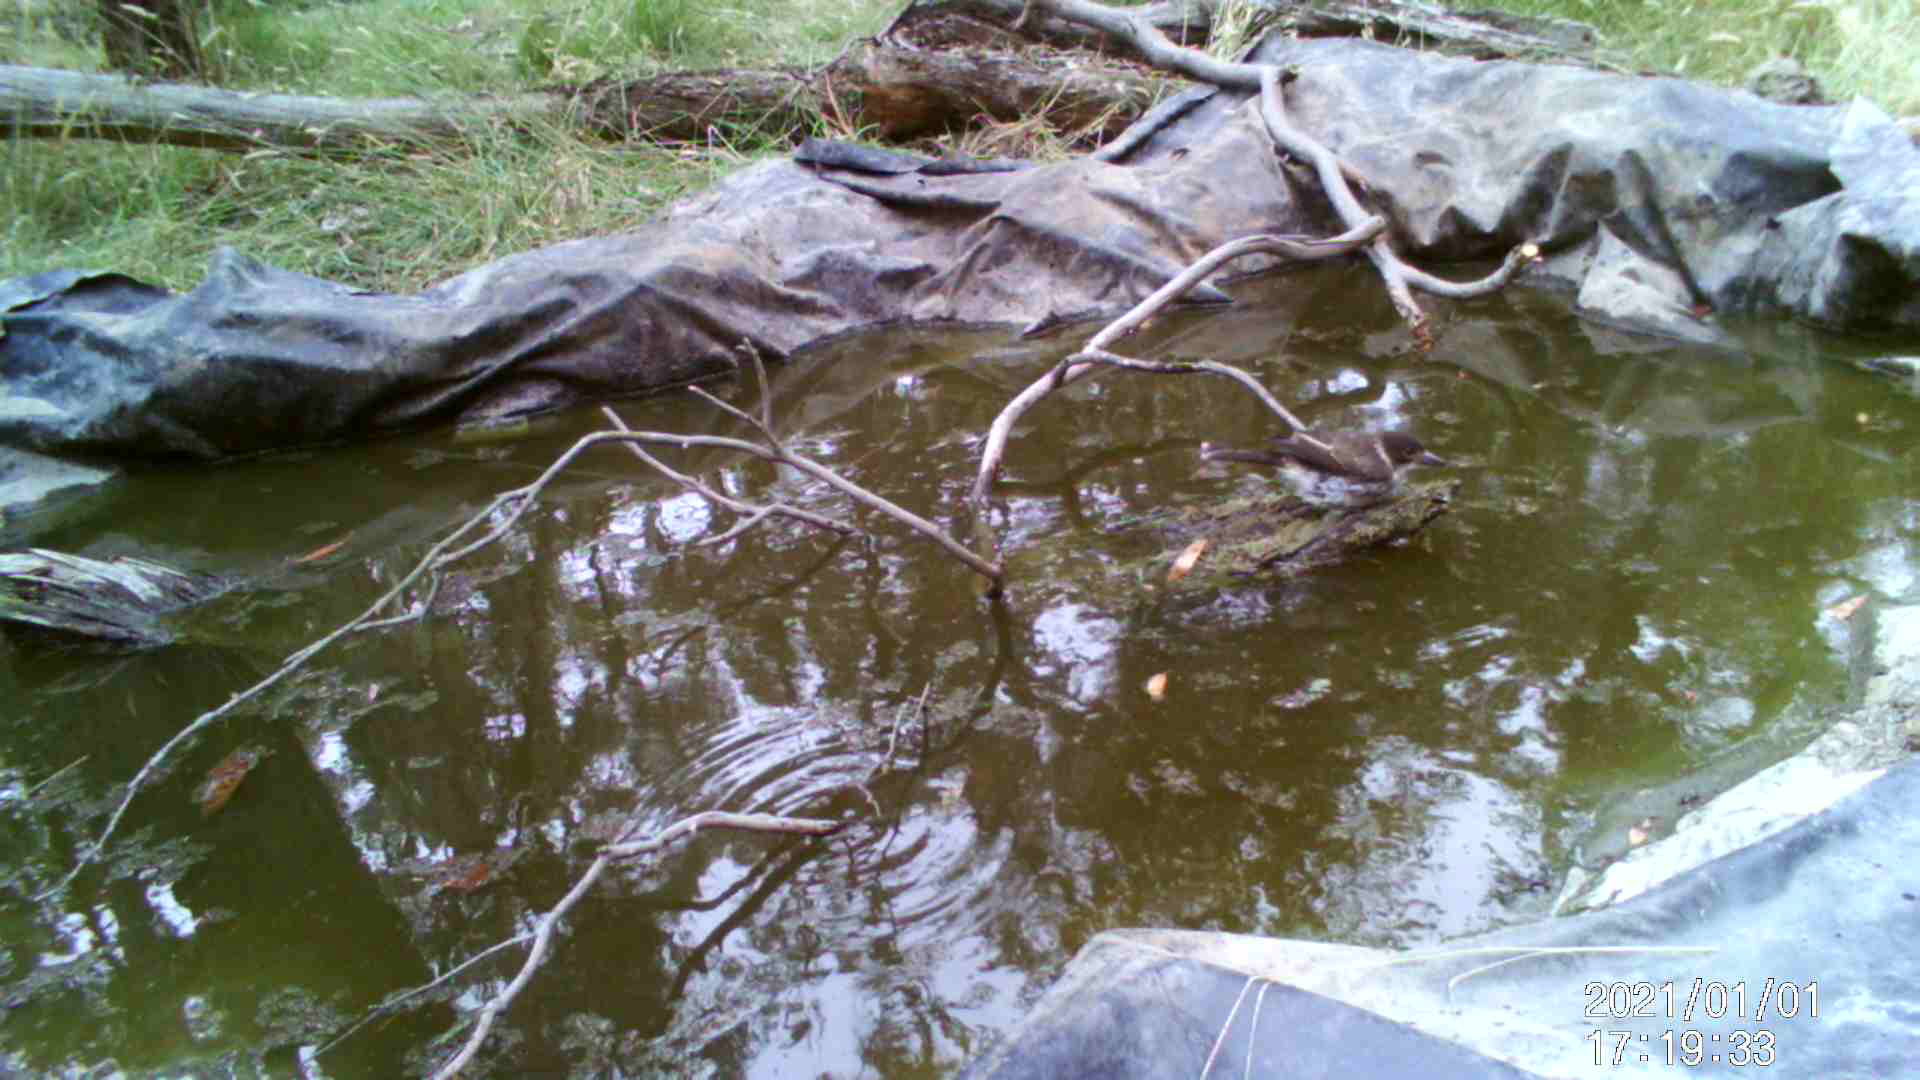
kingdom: Animalia
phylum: Chordata
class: Aves
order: Passeriformes
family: Cracticidae
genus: Cracticus
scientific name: Cracticus torquatus
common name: Grey butcherbird
